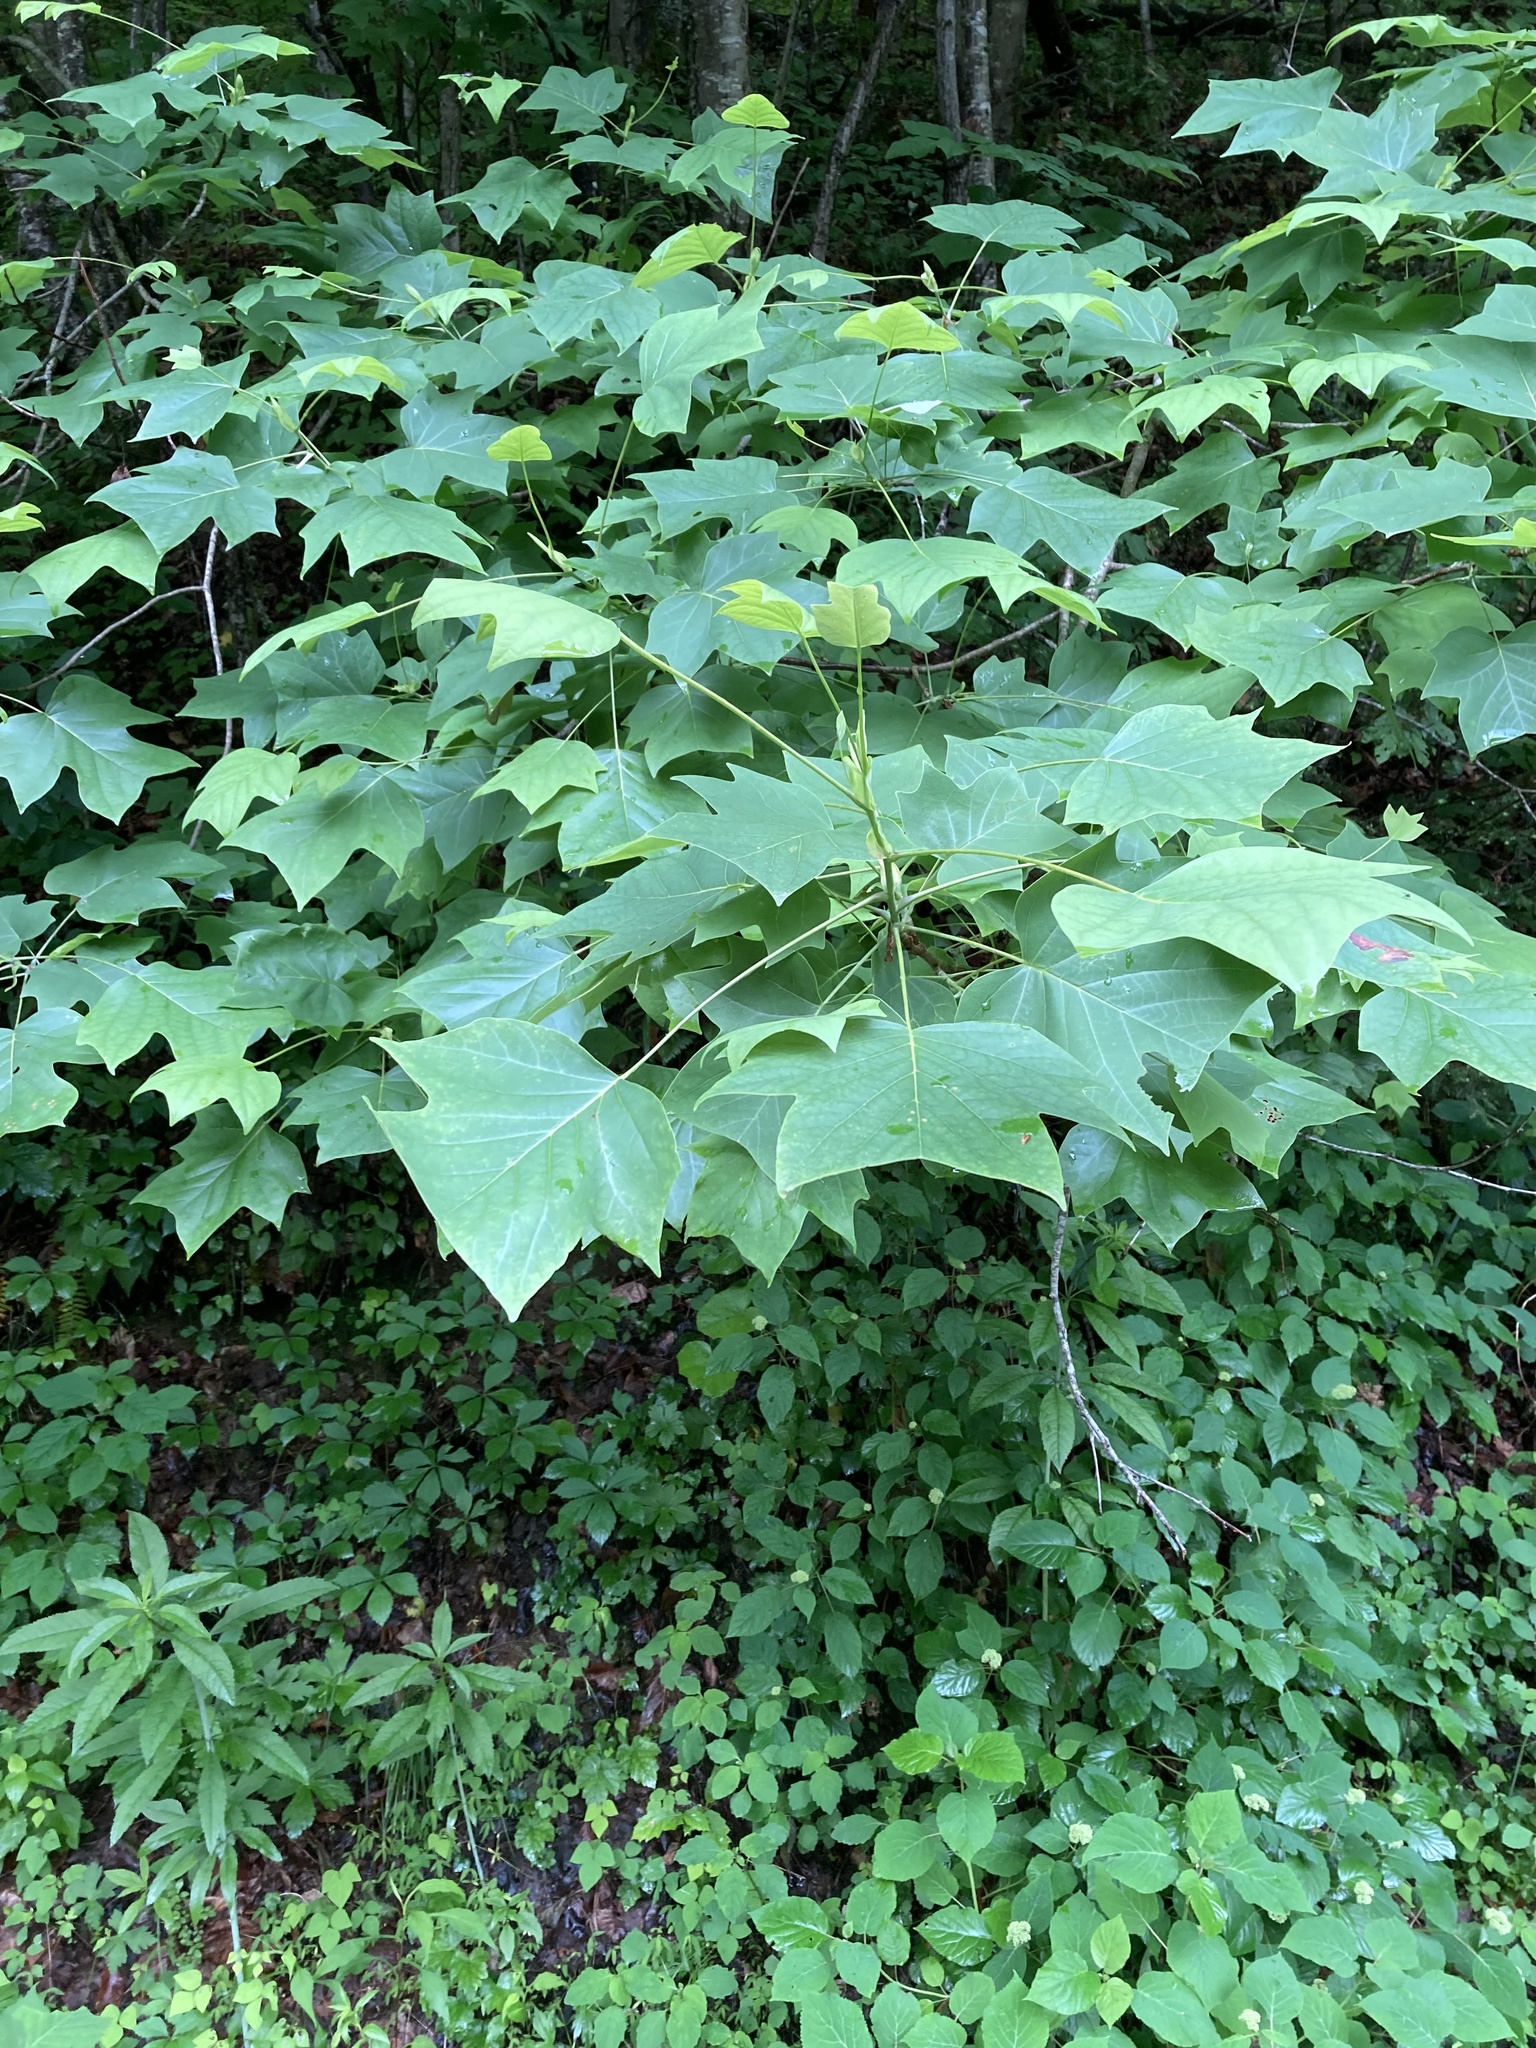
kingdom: Plantae
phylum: Tracheophyta
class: Magnoliopsida
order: Magnoliales
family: Magnoliaceae
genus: Liriodendron
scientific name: Liriodendron tulipifera
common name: Tulip tree
